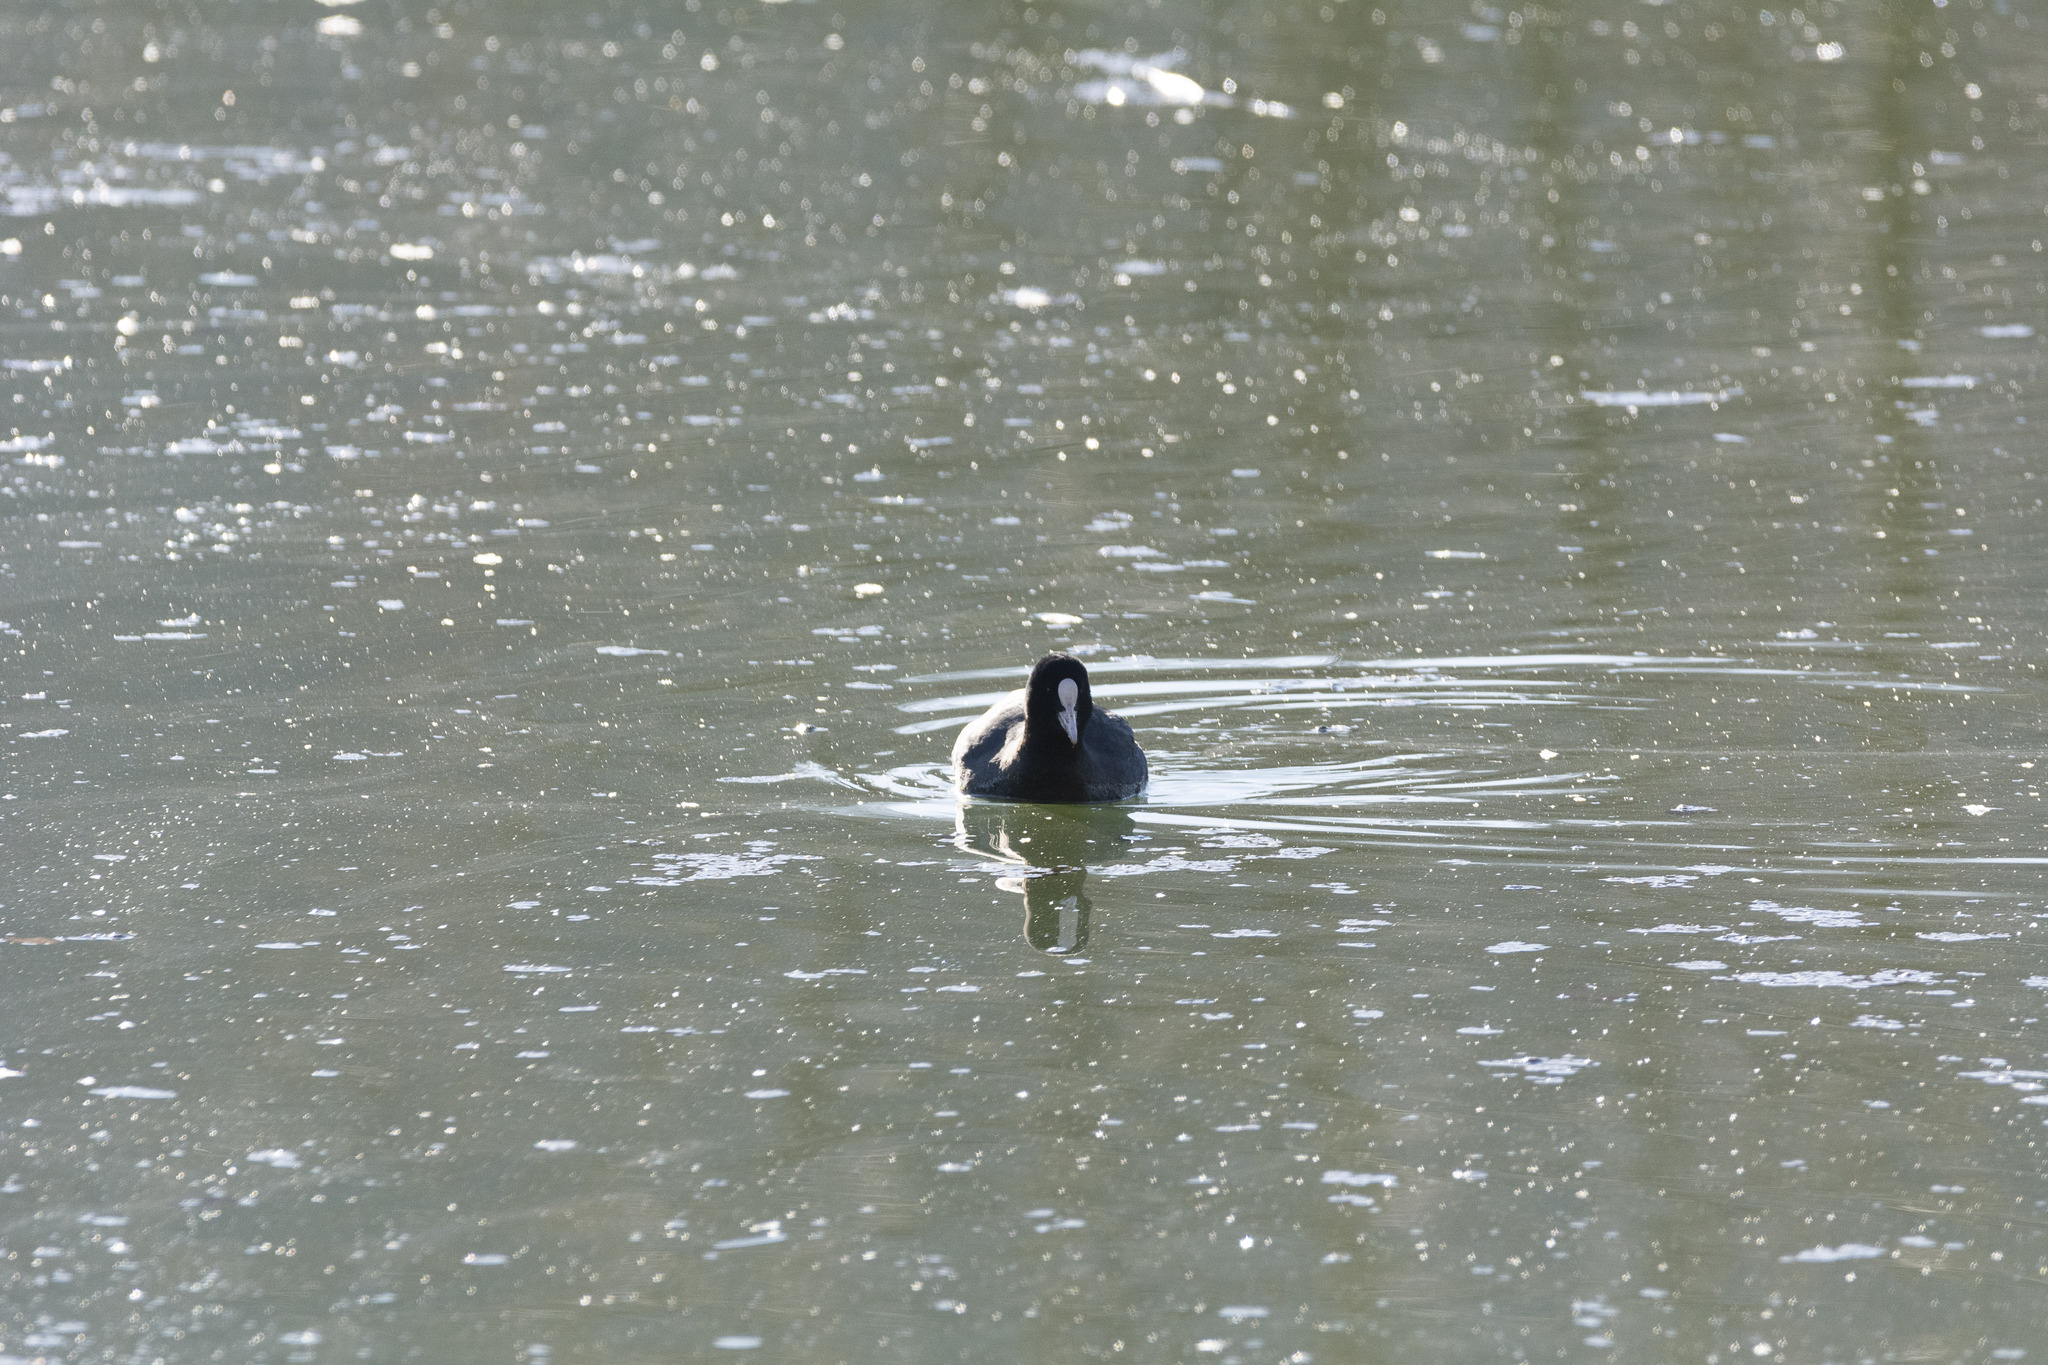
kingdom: Animalia
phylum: Chordata
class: Aves
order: Gruiformes
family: Rallidae
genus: Fulica
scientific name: Fulica atra
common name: Eurasian coot
